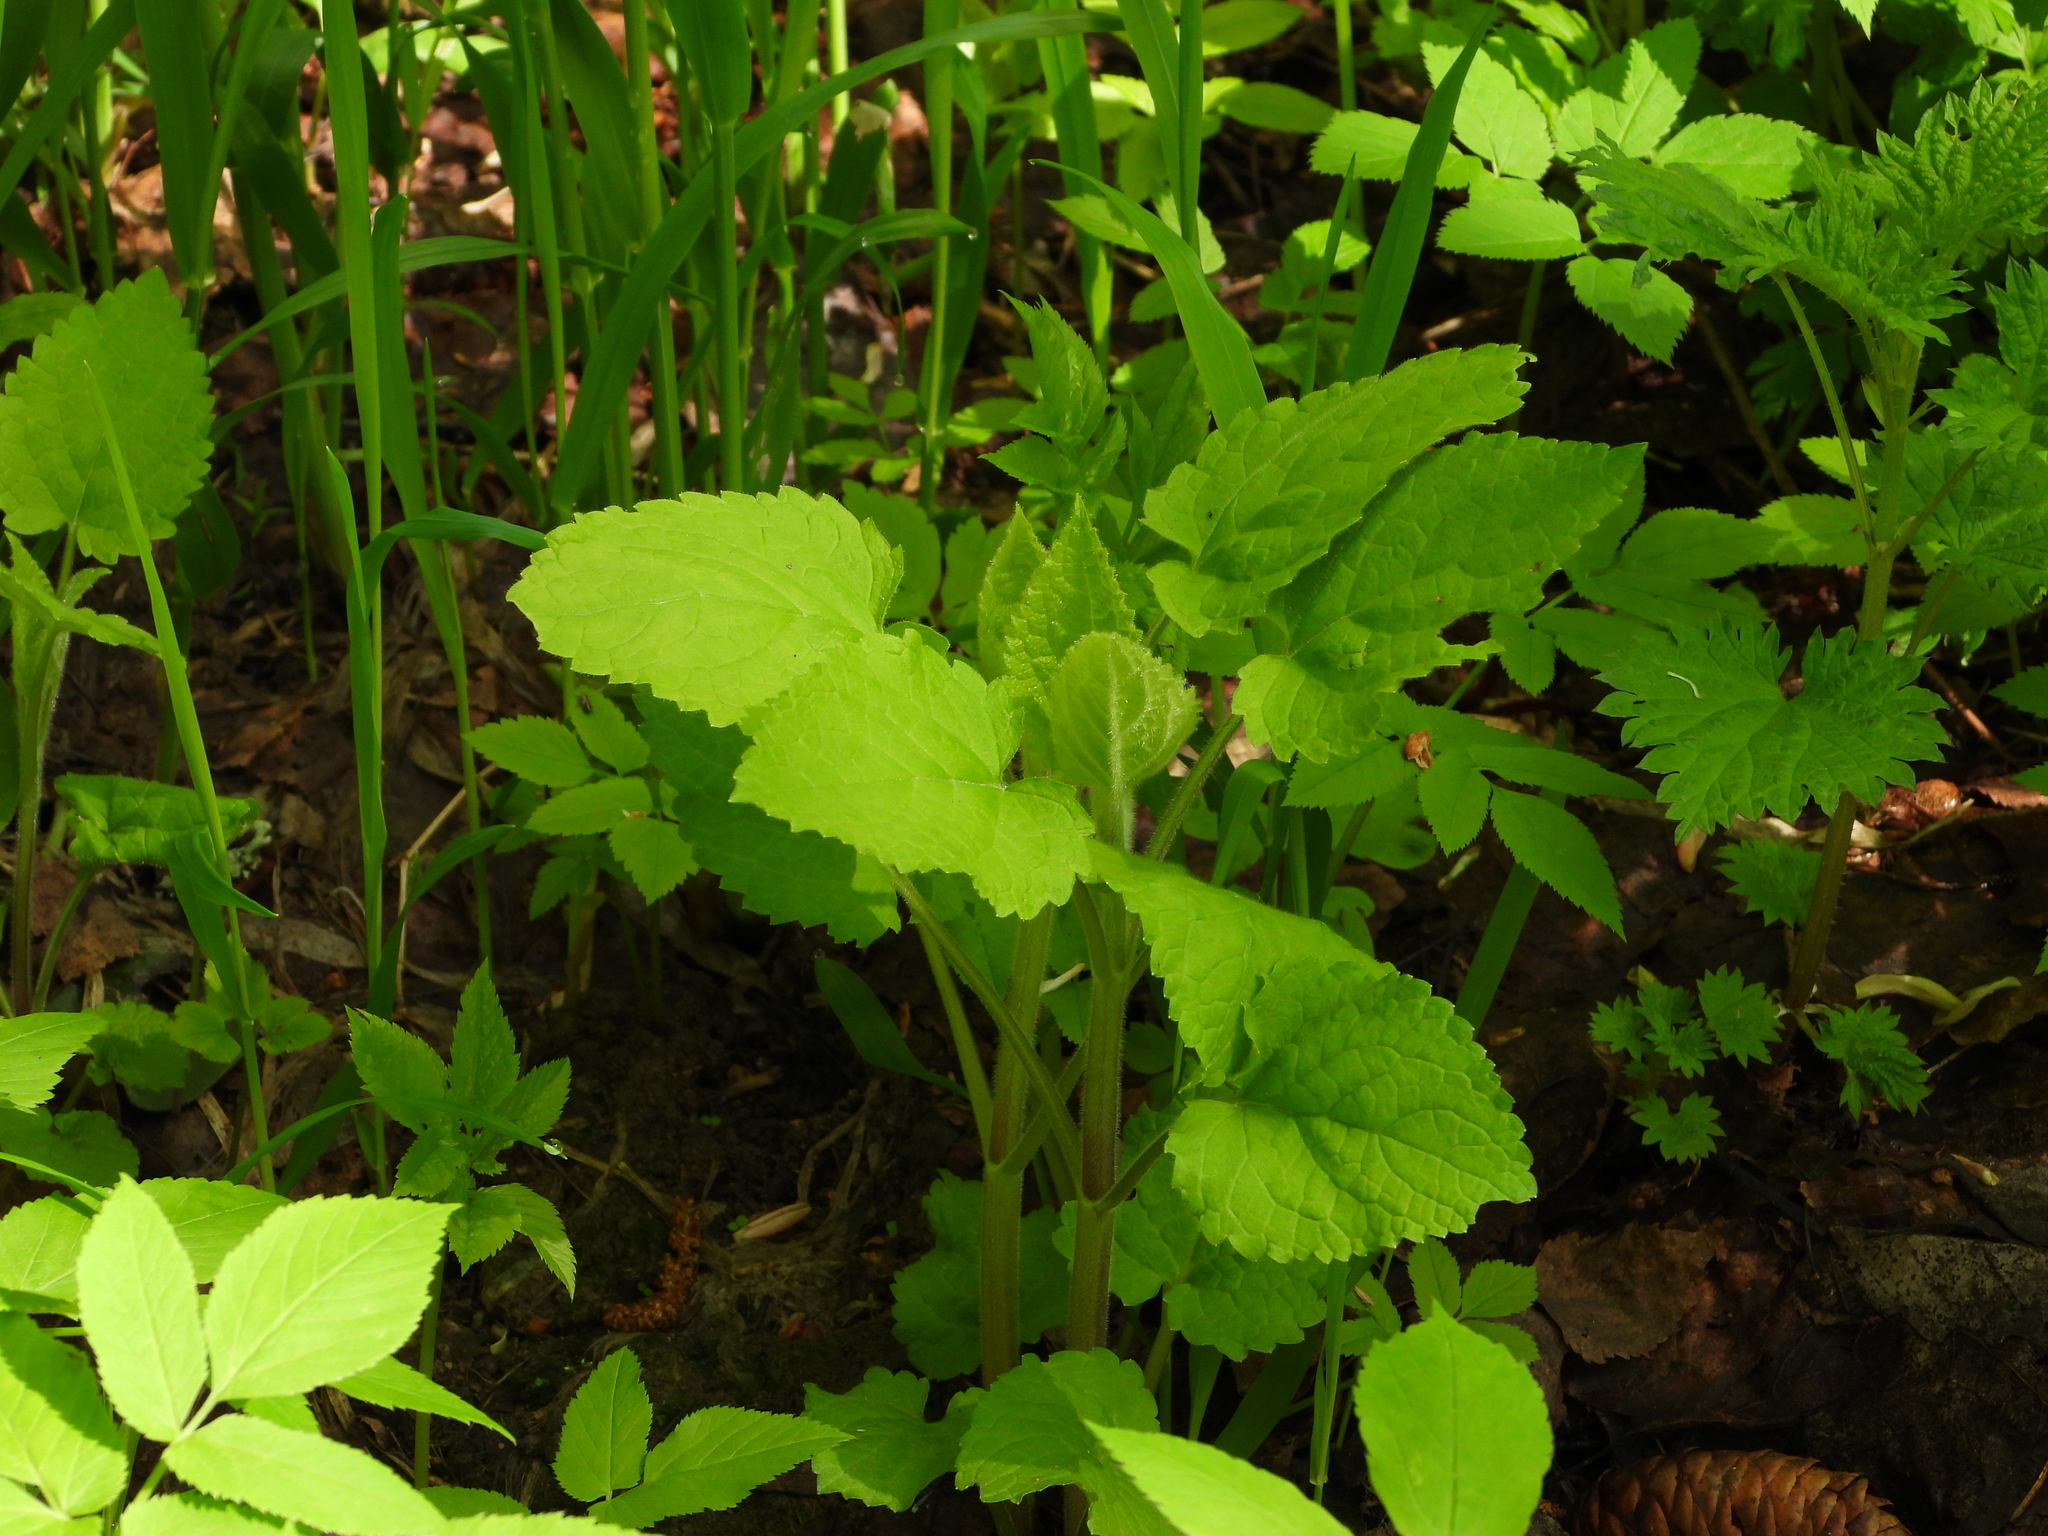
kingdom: Plantae
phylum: Tracheophyta
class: Magnoliopsida
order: Lamiales
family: Scrophulariaceae
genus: Scrophularia
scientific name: Scrophularia nodosa
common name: Common figwort
